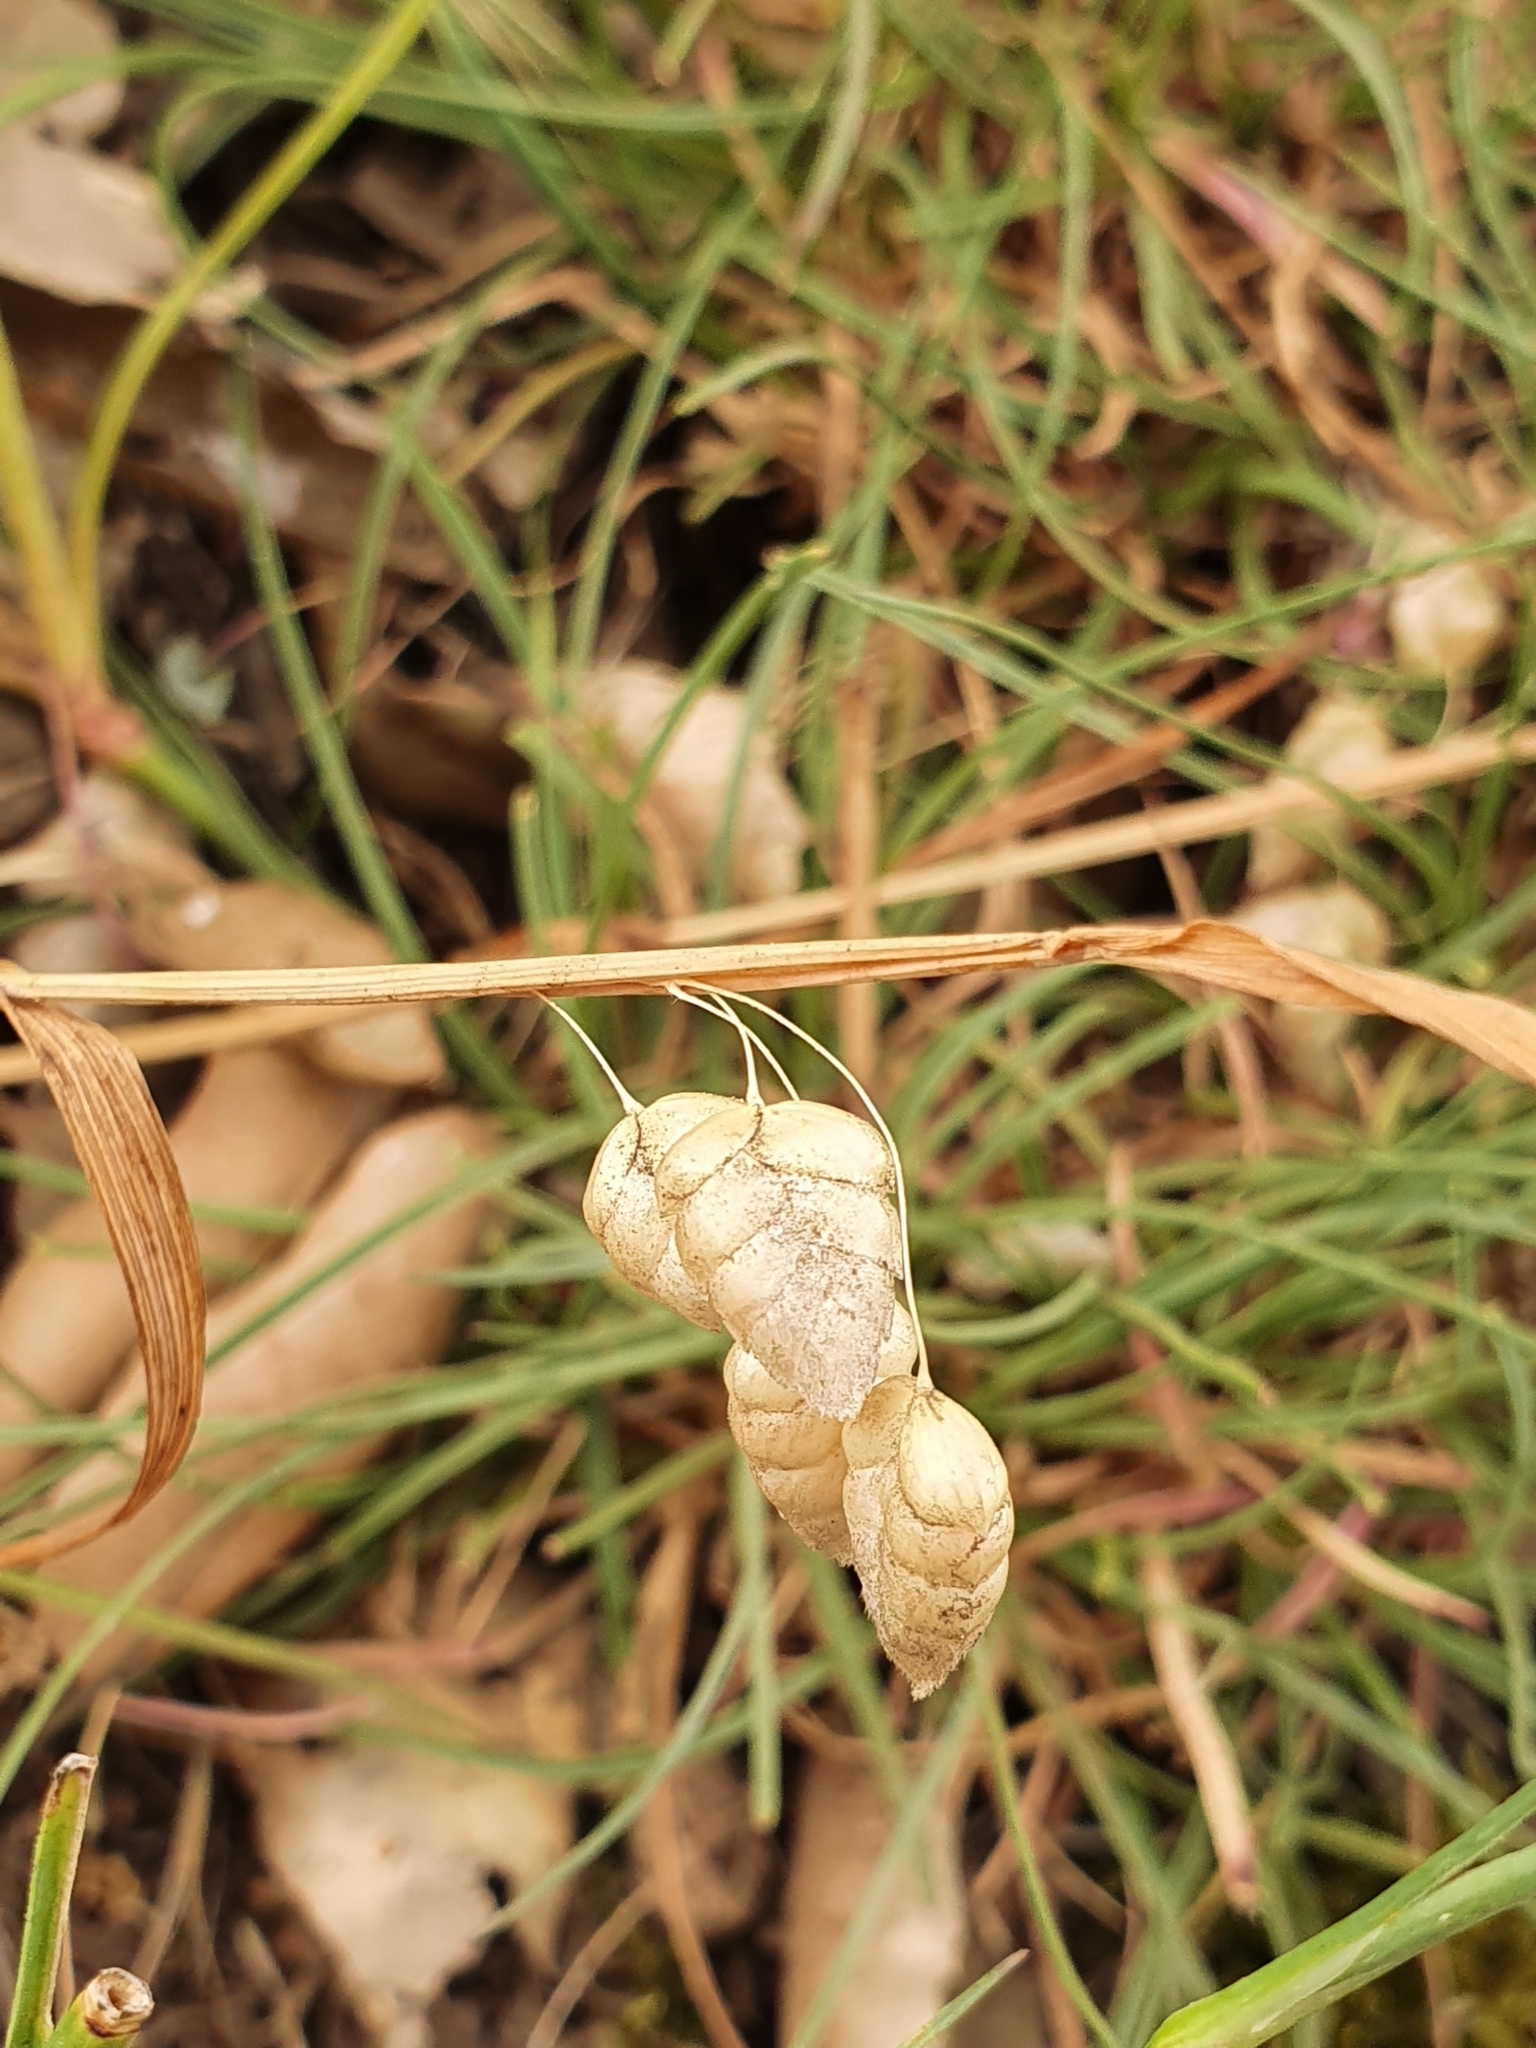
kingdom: Plantae
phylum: Tracheophyta
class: Liliopsida
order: Poales
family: Poaceae
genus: Briza
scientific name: Briza maxima
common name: Big quakinggrass
